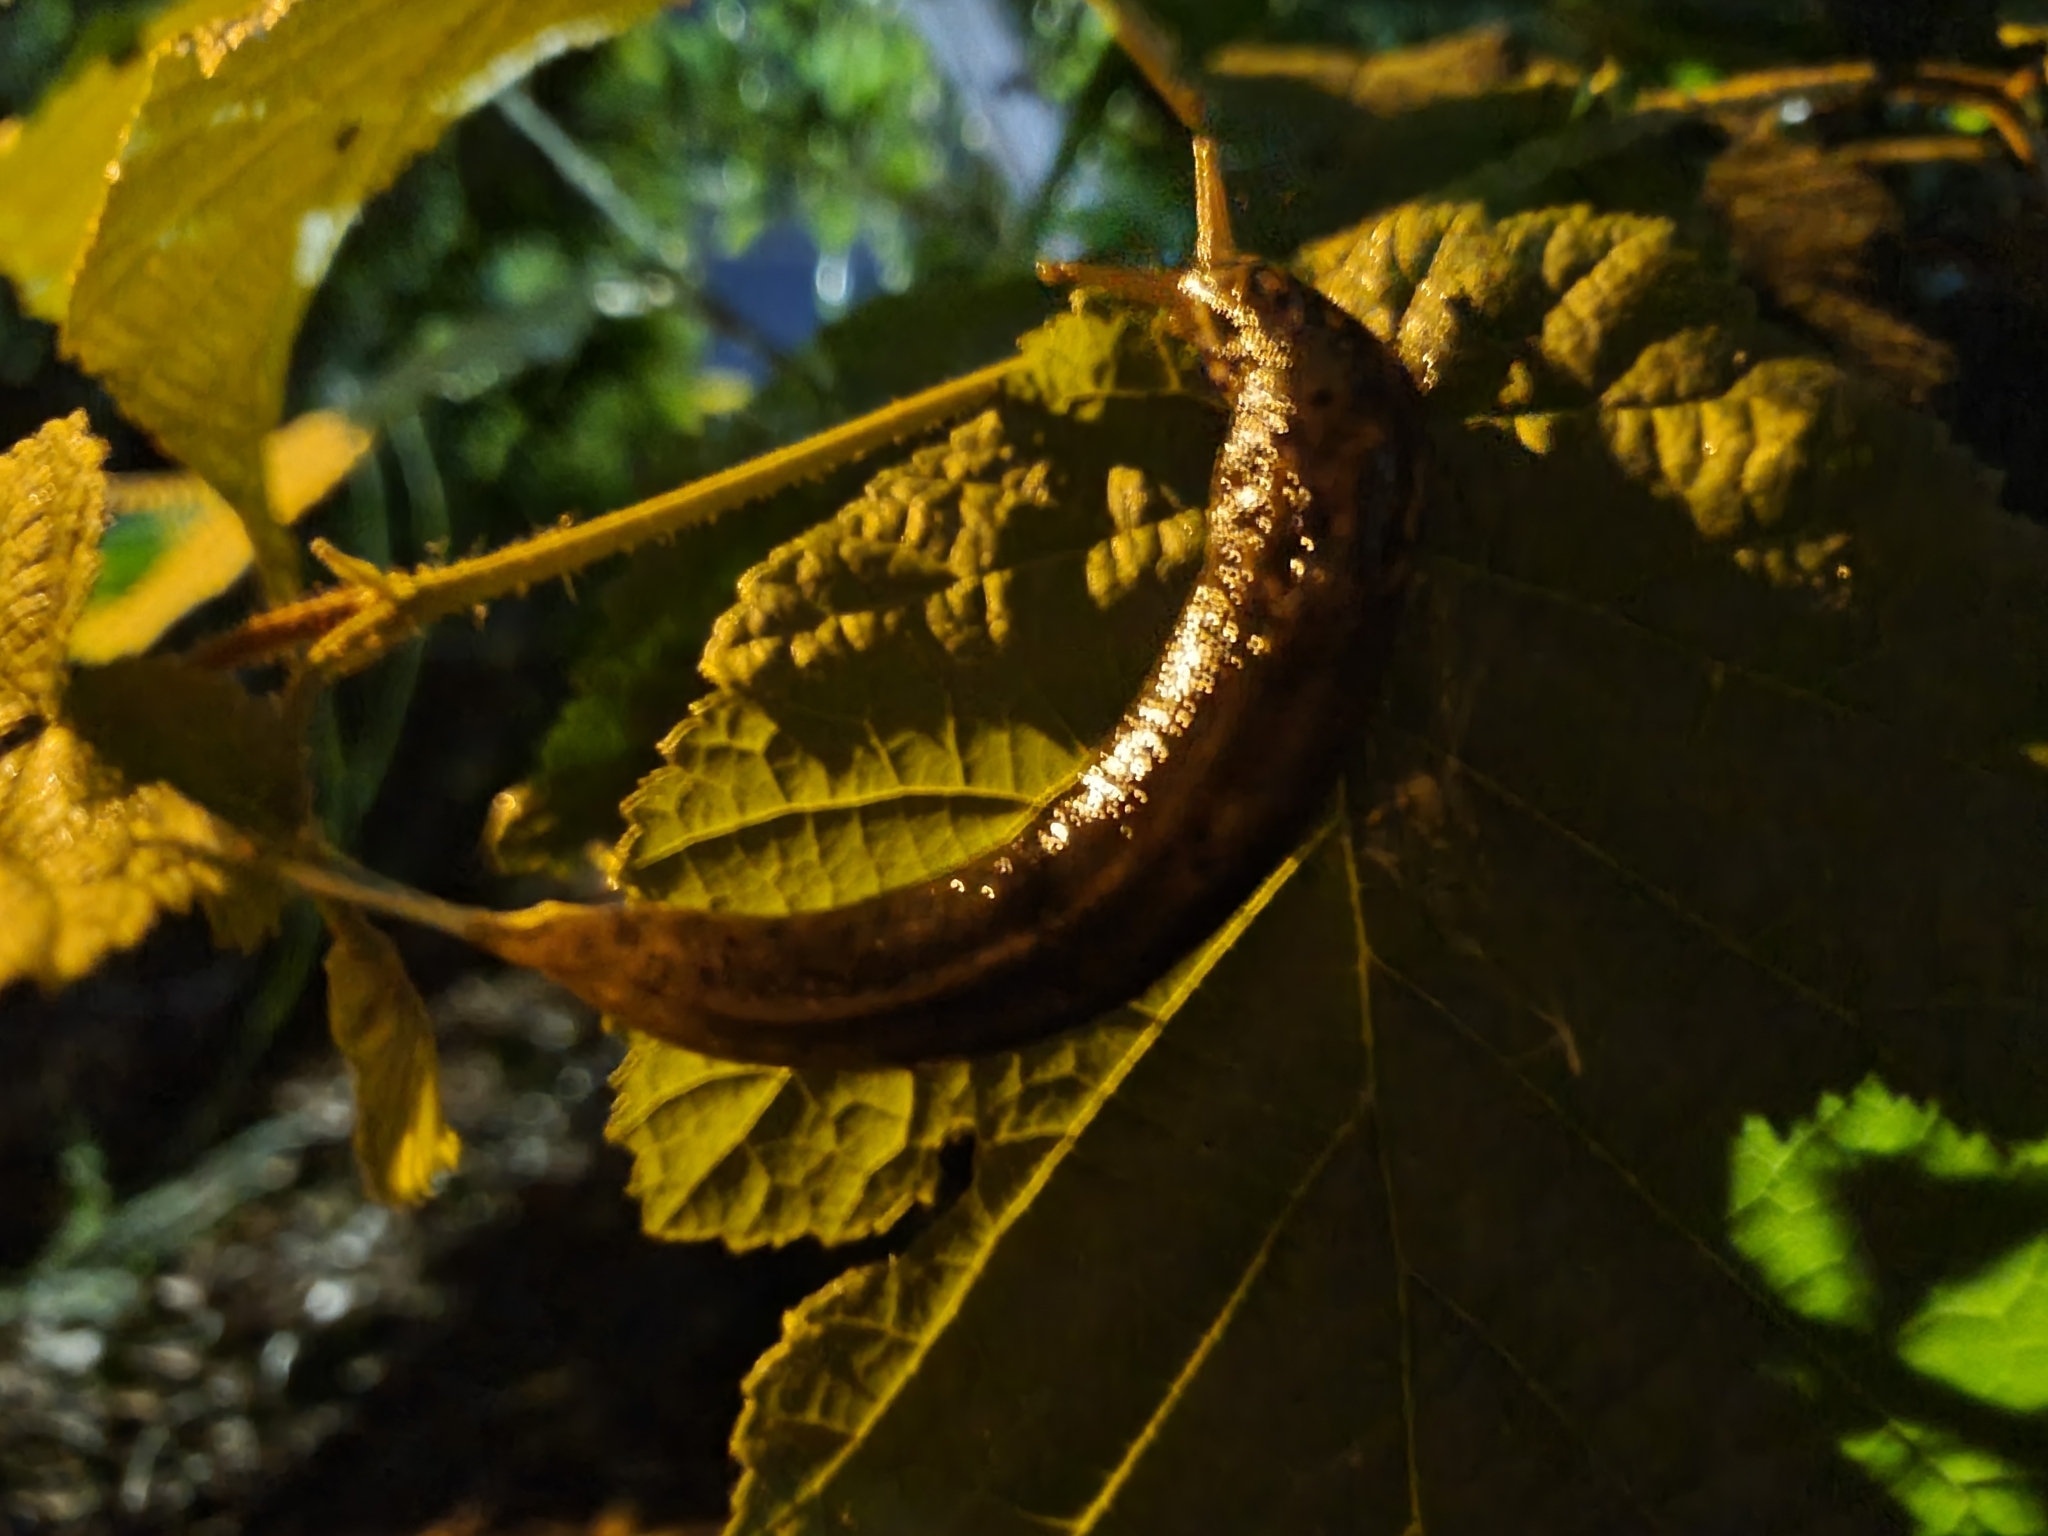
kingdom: Animalia
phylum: Mollusca
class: Gastropoda
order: Stylommatophora
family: Limacidae
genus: Limax
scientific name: Limax maximus
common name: Great grey slug
